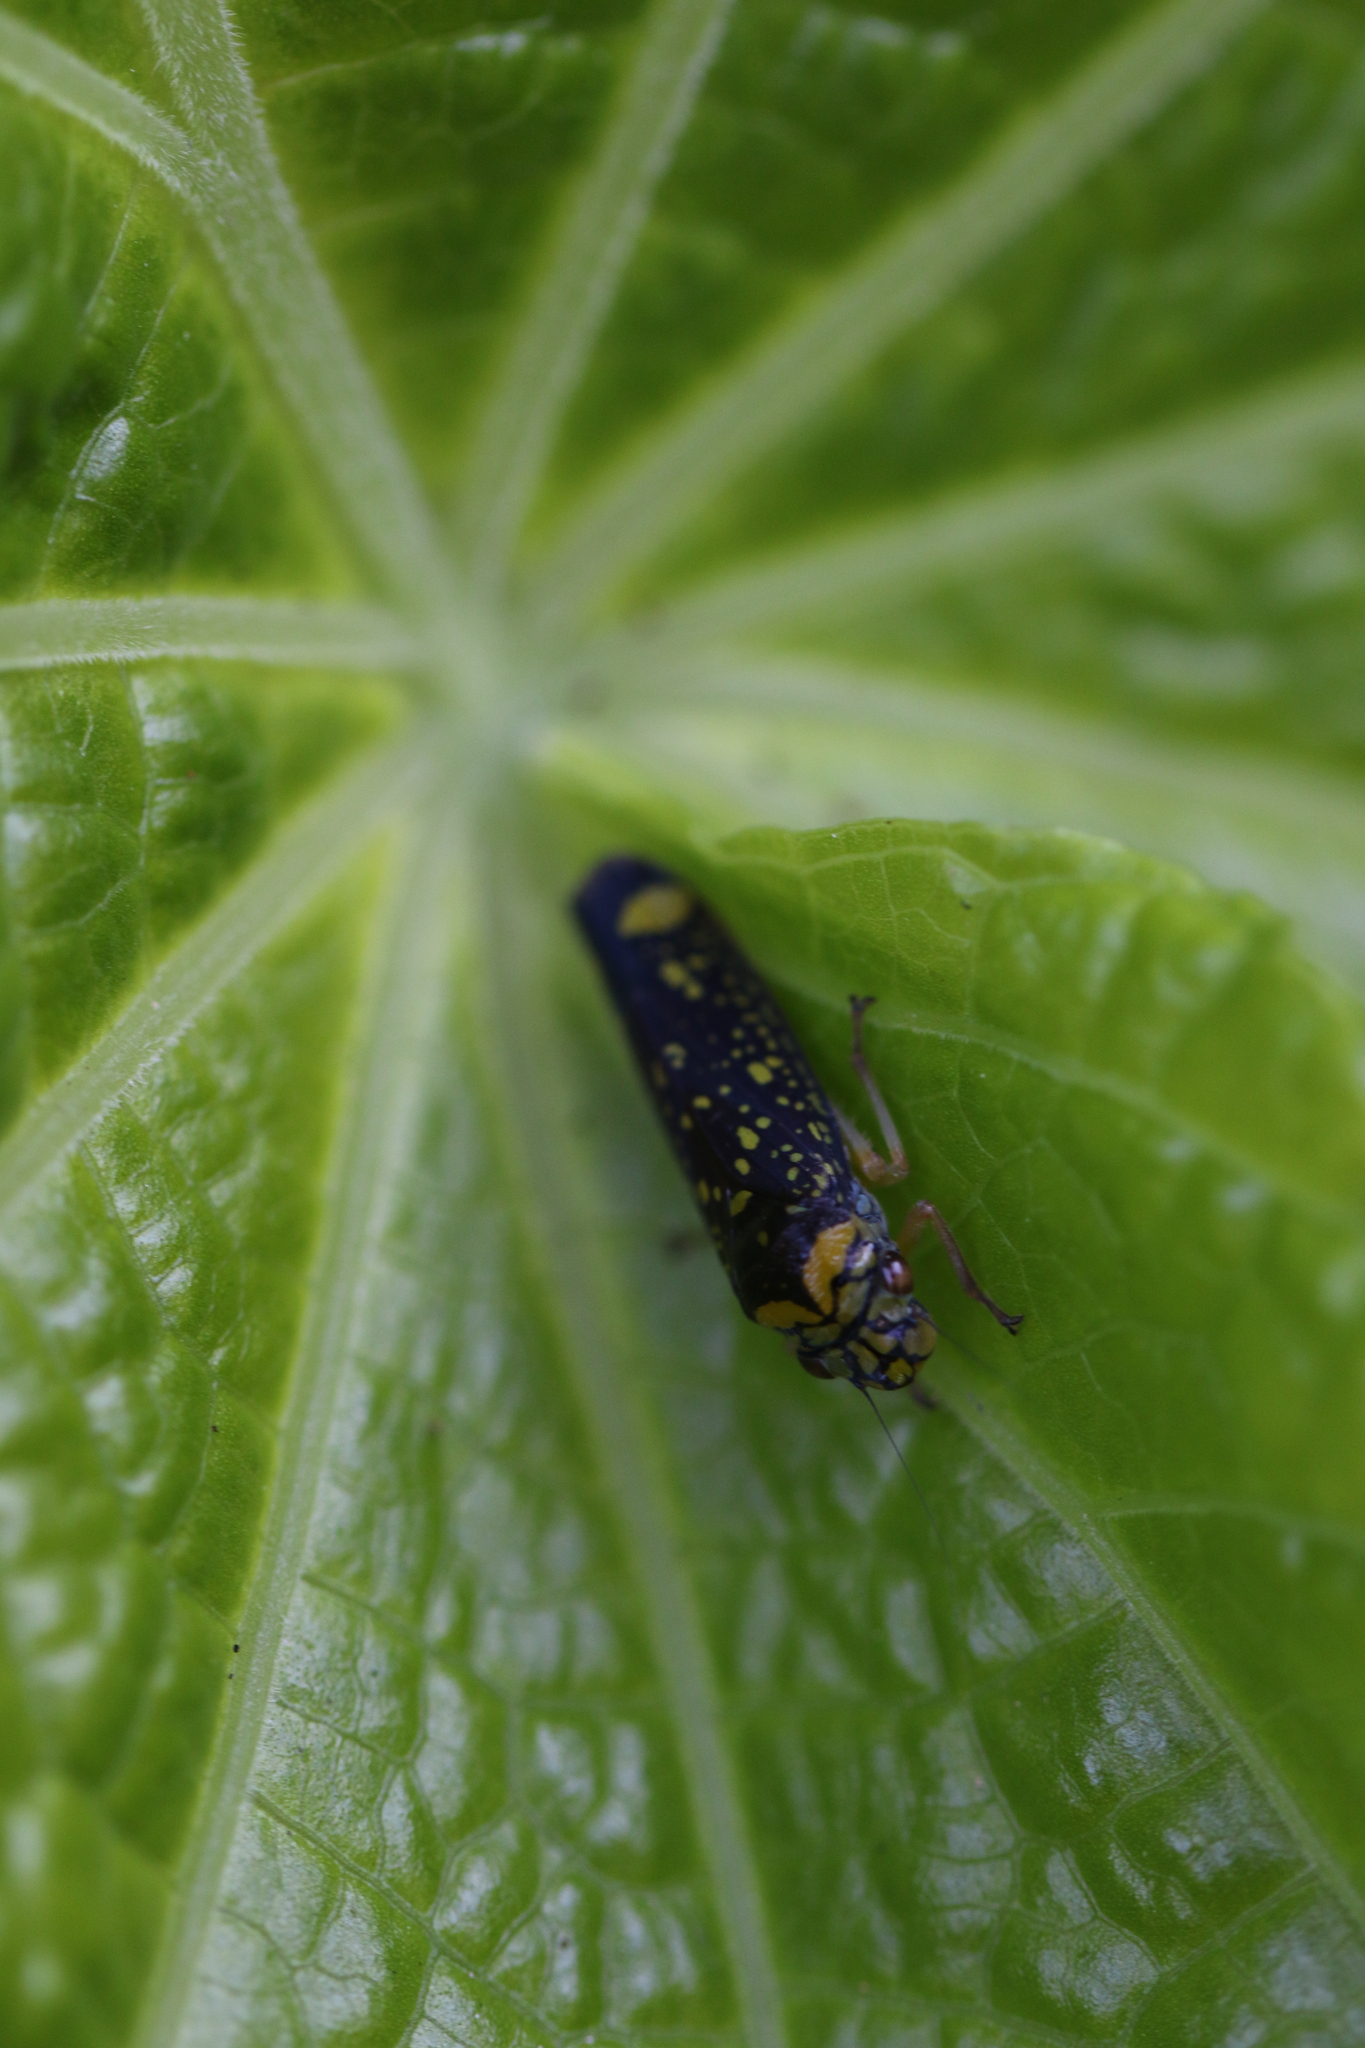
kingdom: Animalia
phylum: Arthropoda
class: Insecta
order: Hemiptera
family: Cicadellidae
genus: Aulacizes
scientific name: Aulacizes conspersa
